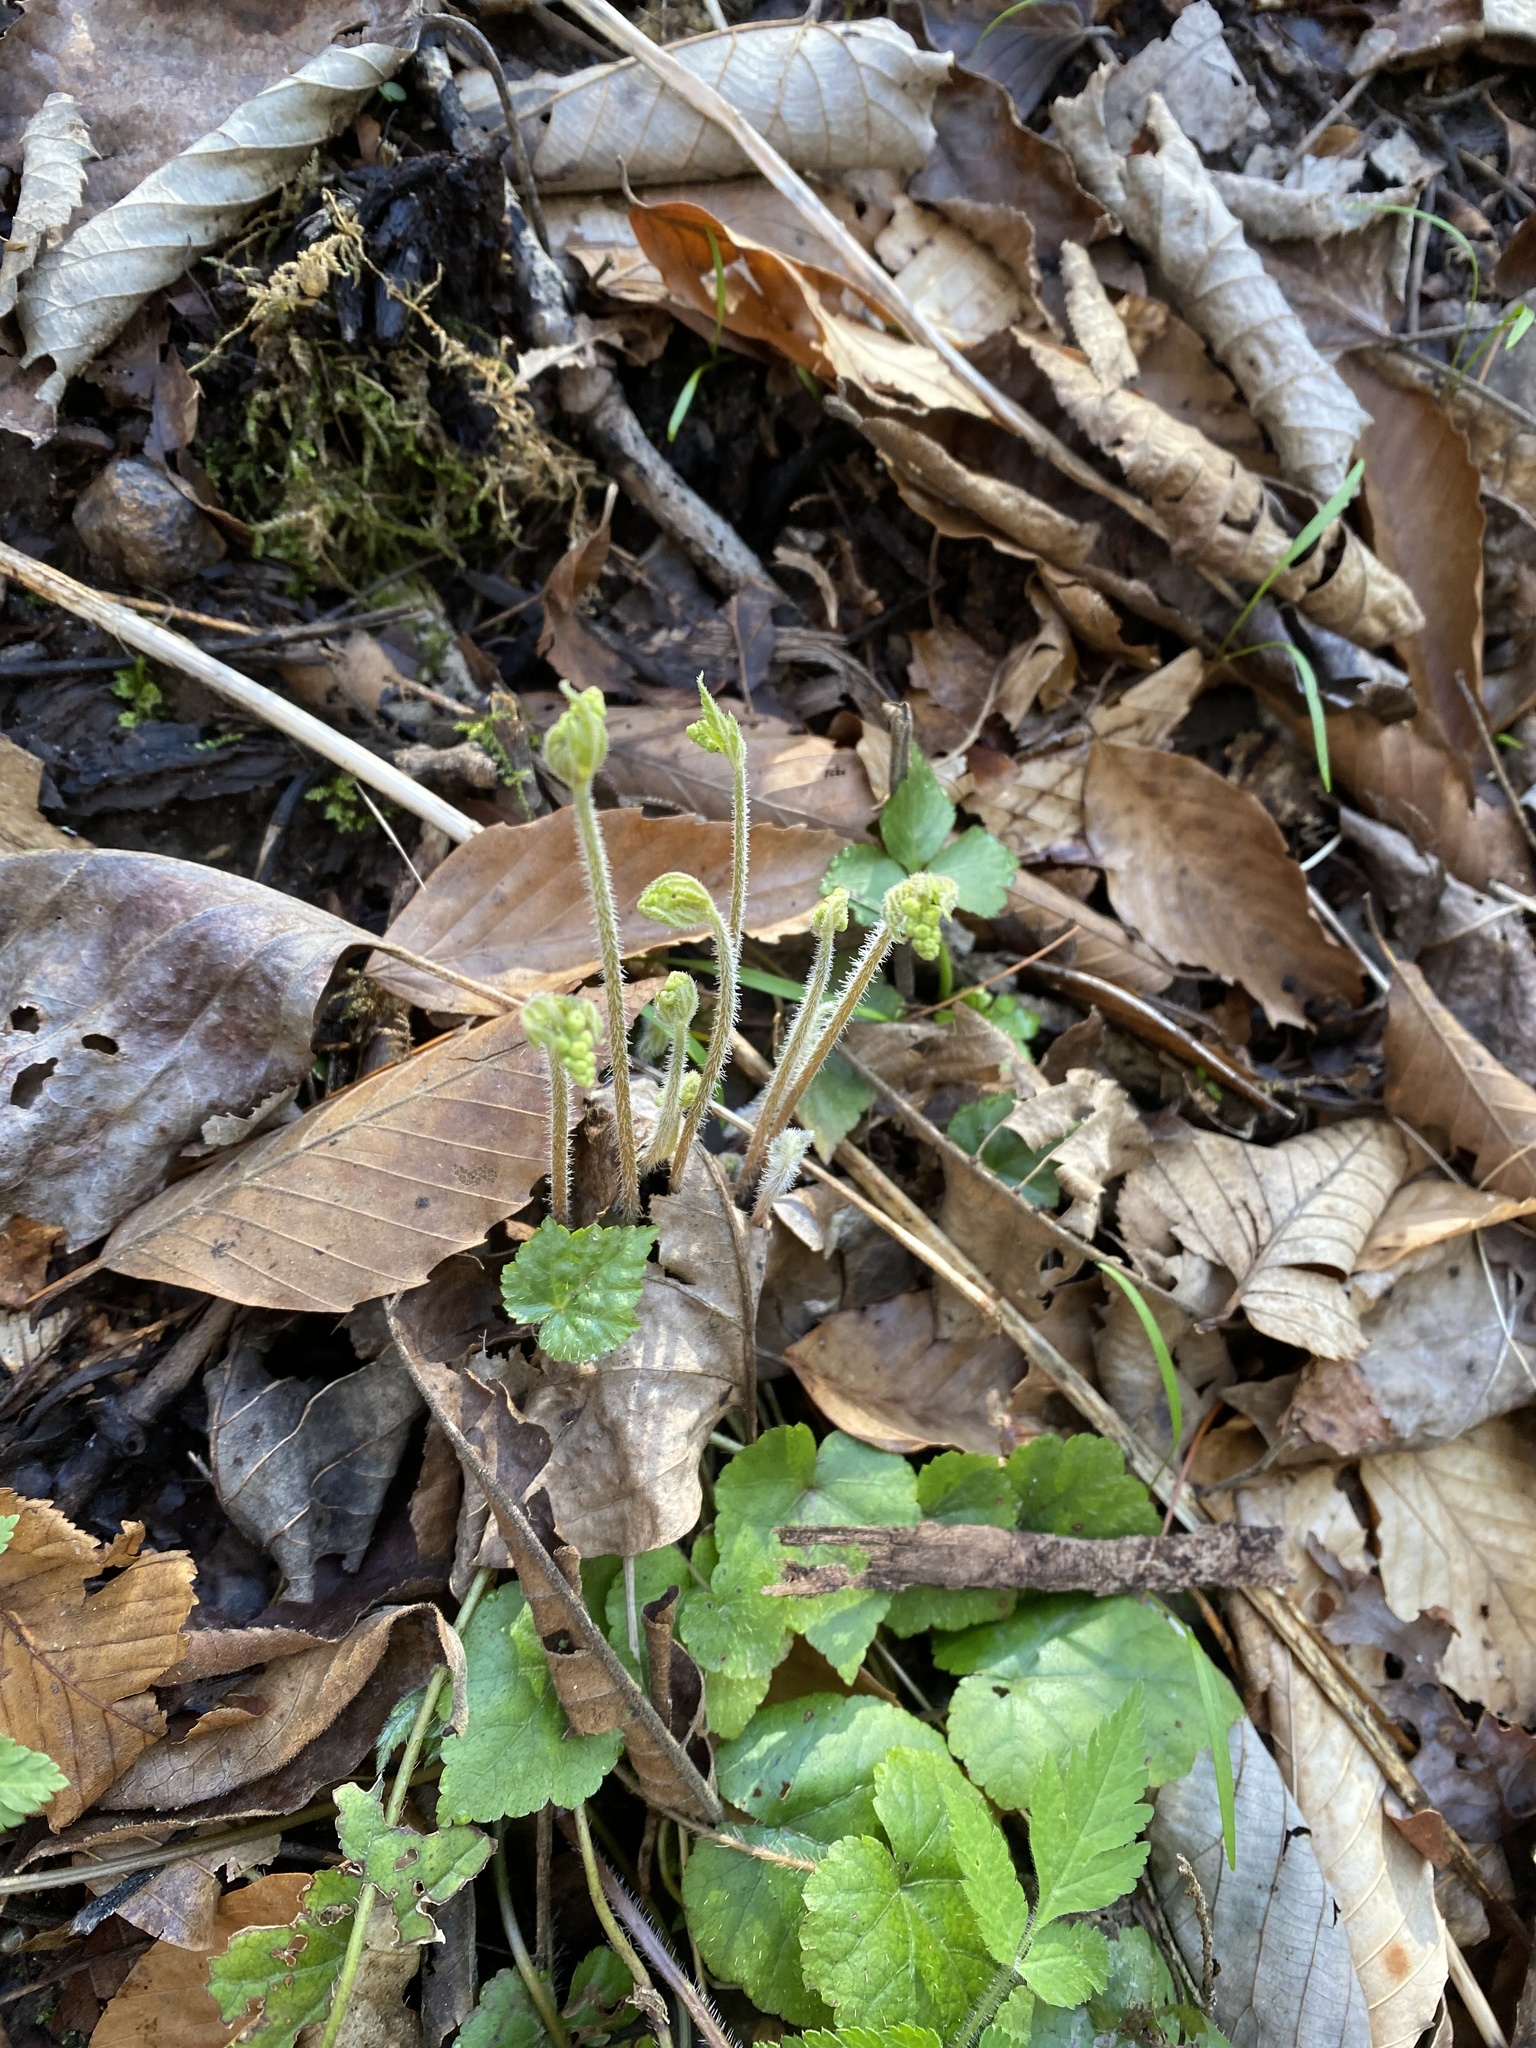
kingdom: Plantae
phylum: Tracheophyta
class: Magnoliopsida
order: Saxifragales
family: Saxifragaceae
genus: Mitella
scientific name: Mitella diphylla
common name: Coolwort
